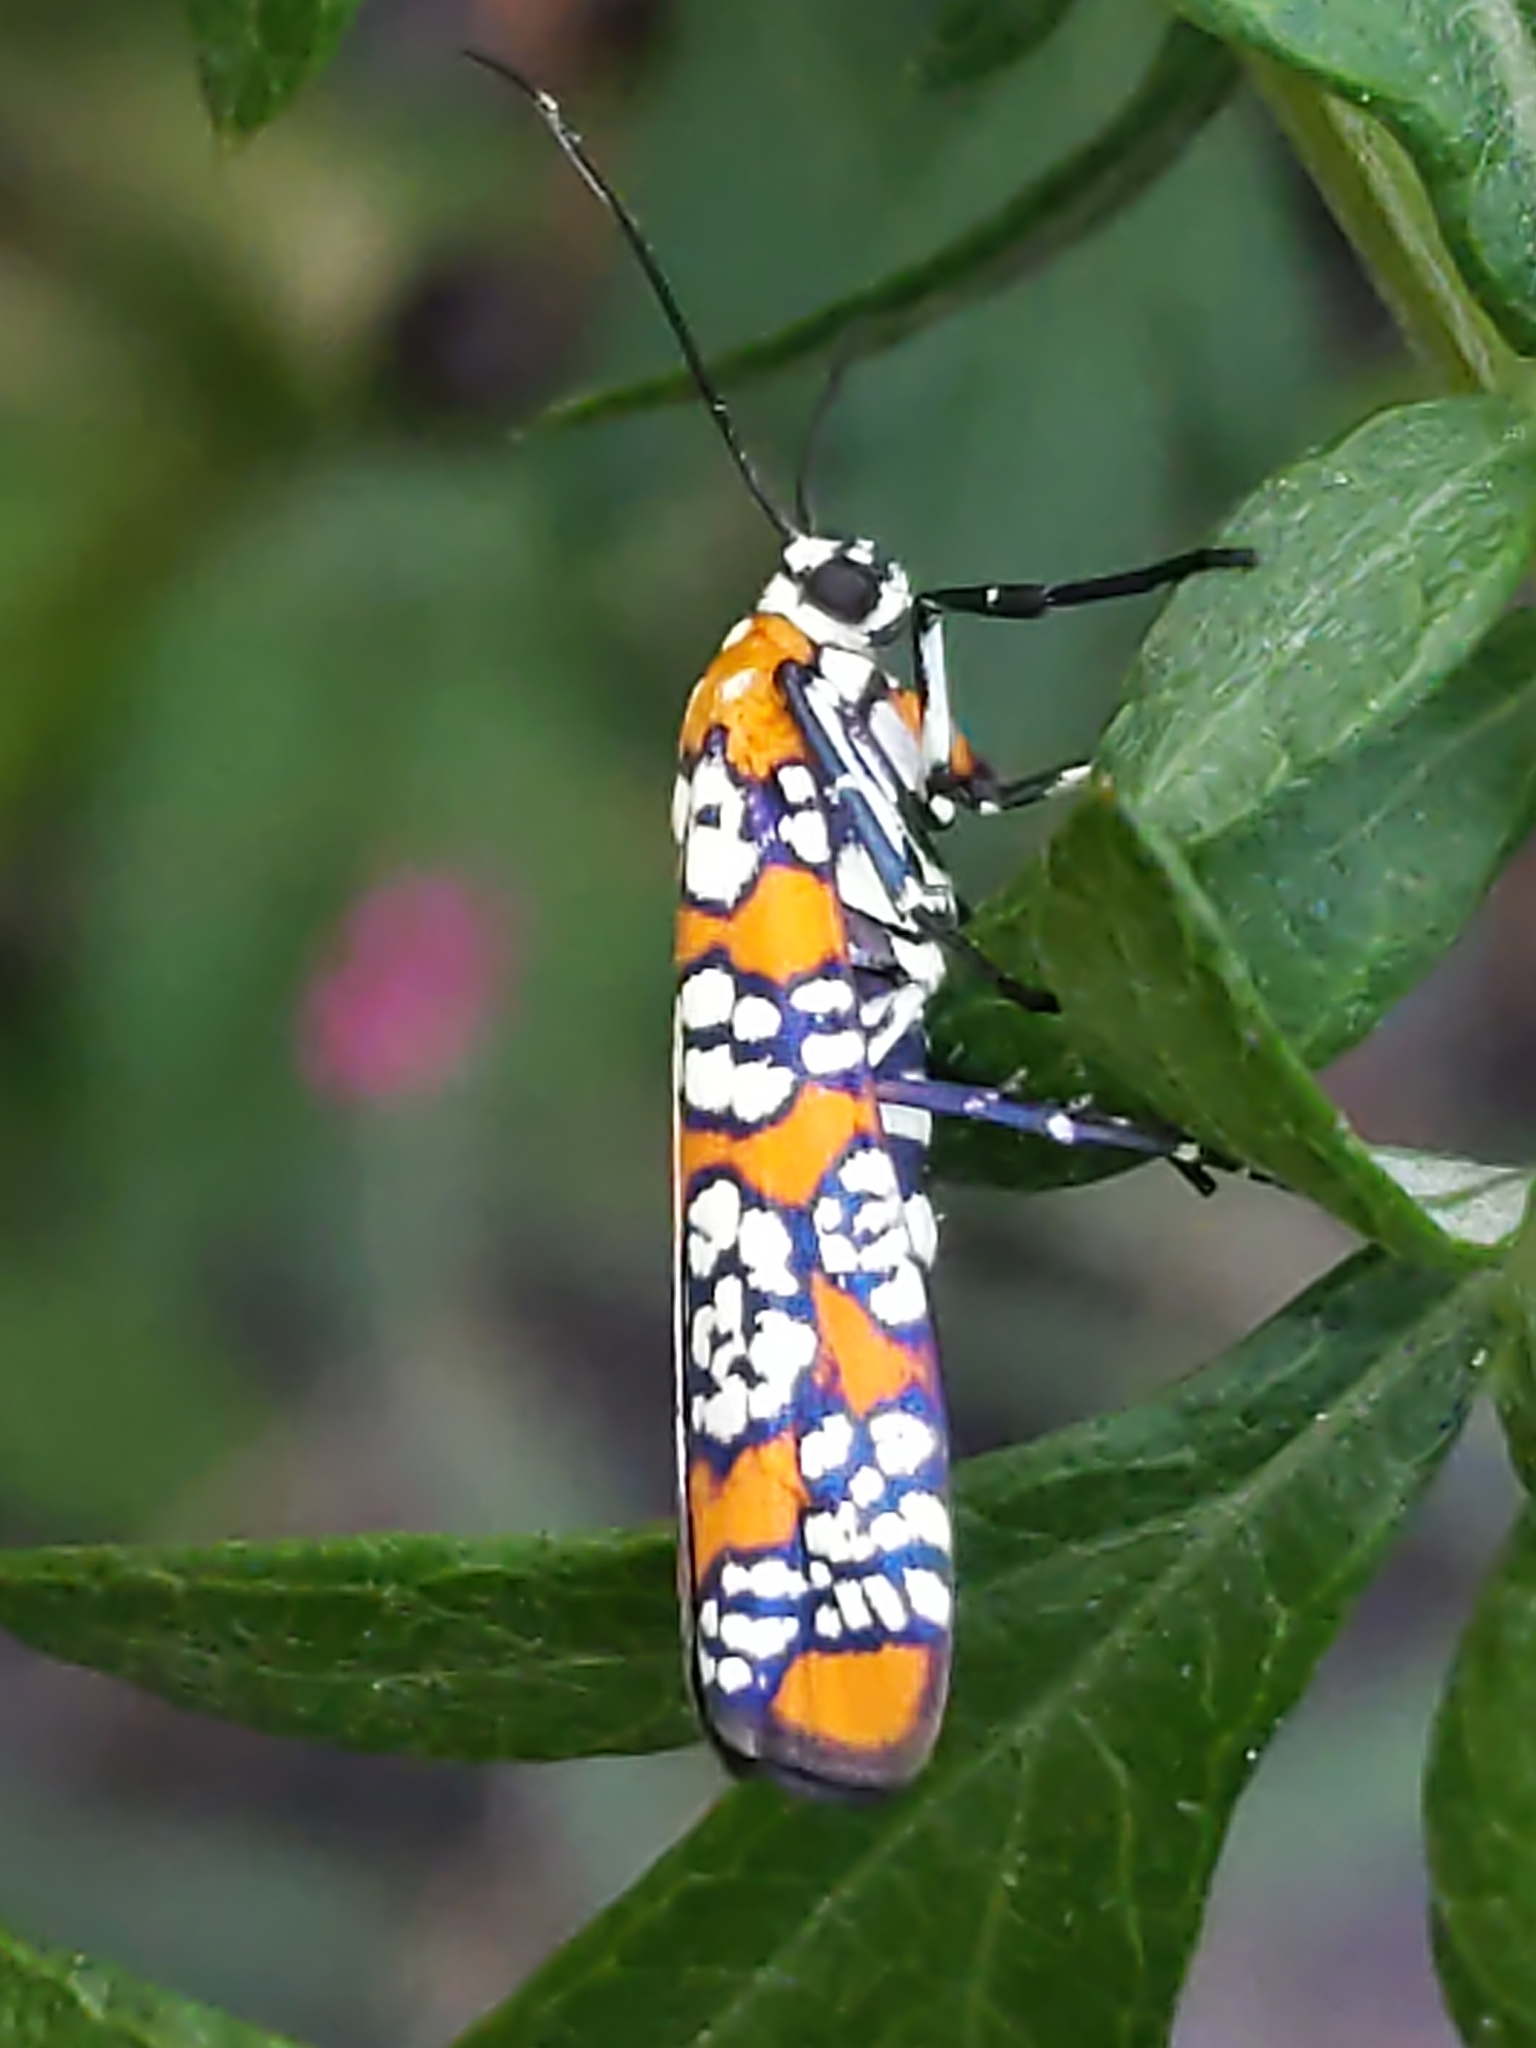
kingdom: Animalia
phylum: Arthropoda
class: Insecta
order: Lepidoptera
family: Attevidae
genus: Atteva
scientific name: Atteva punctella
